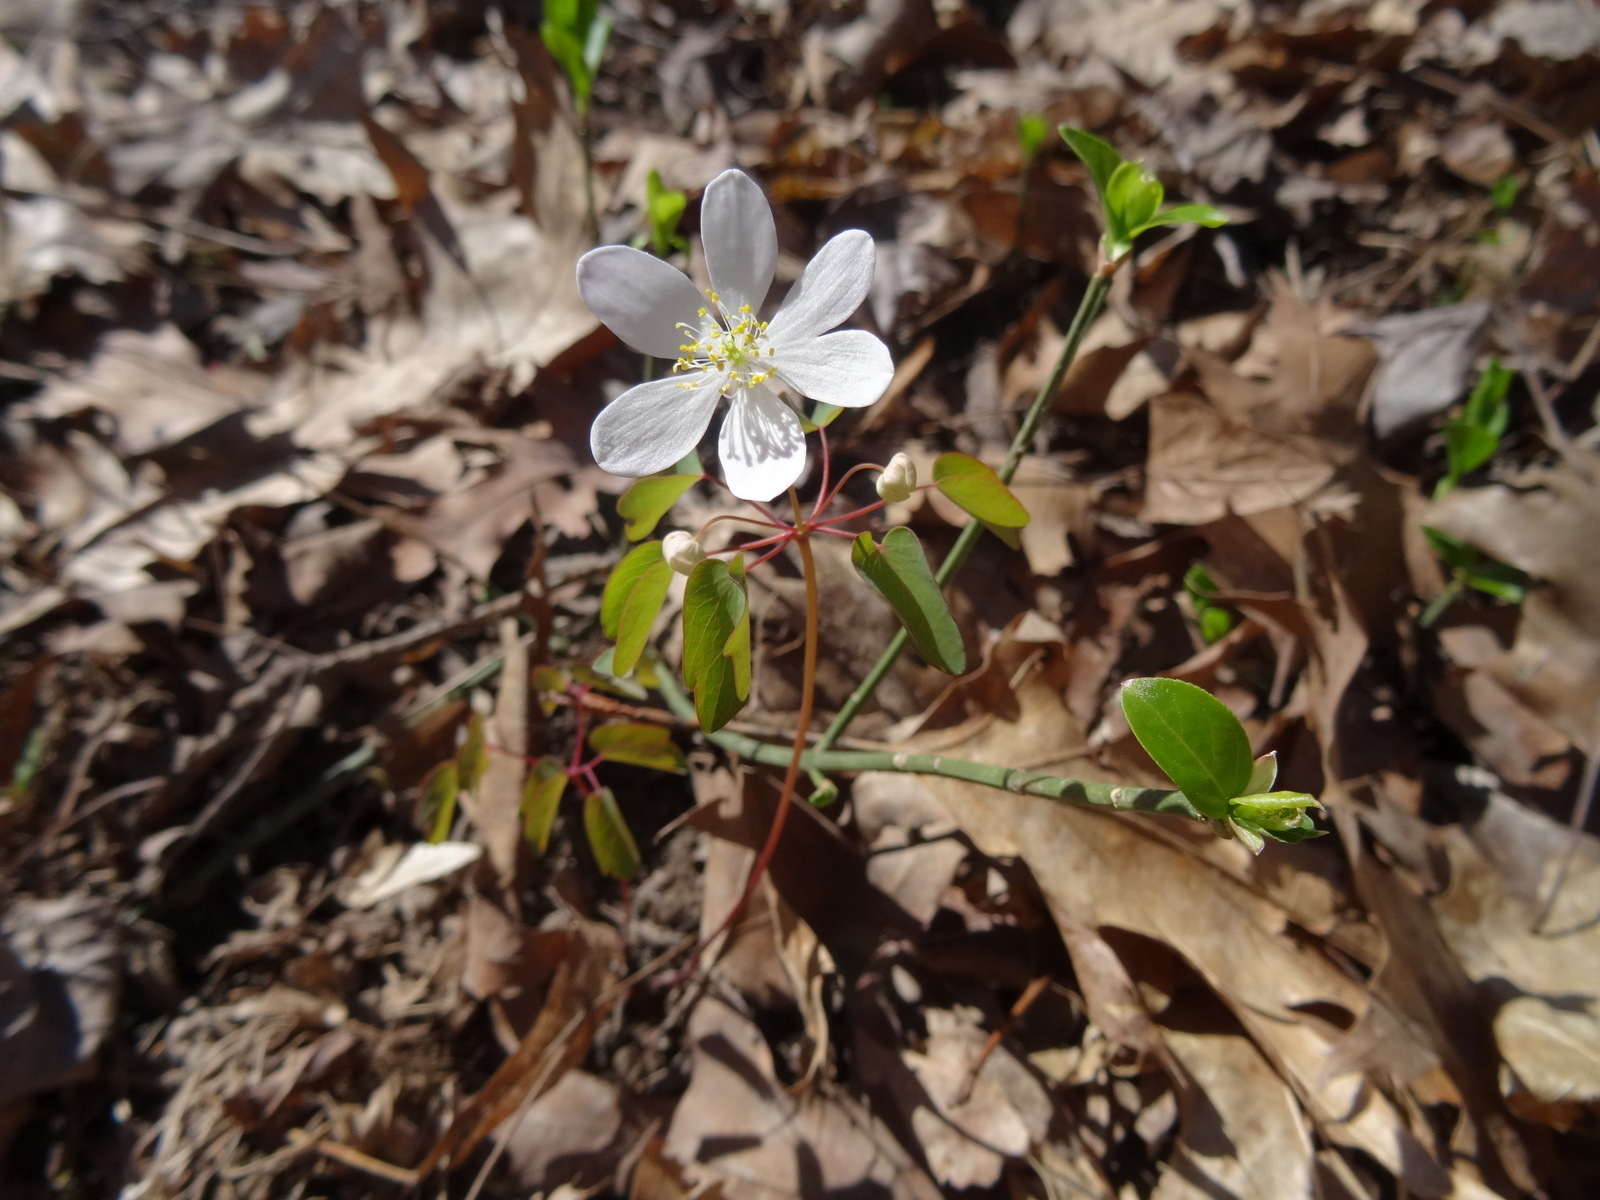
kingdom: Plantae
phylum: Tracheophyta
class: Magnoliopsida
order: Ranunculales
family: Ranunculaceae
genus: Thalictrum
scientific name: Thalictrum thalictroides
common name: Rue-anemone
